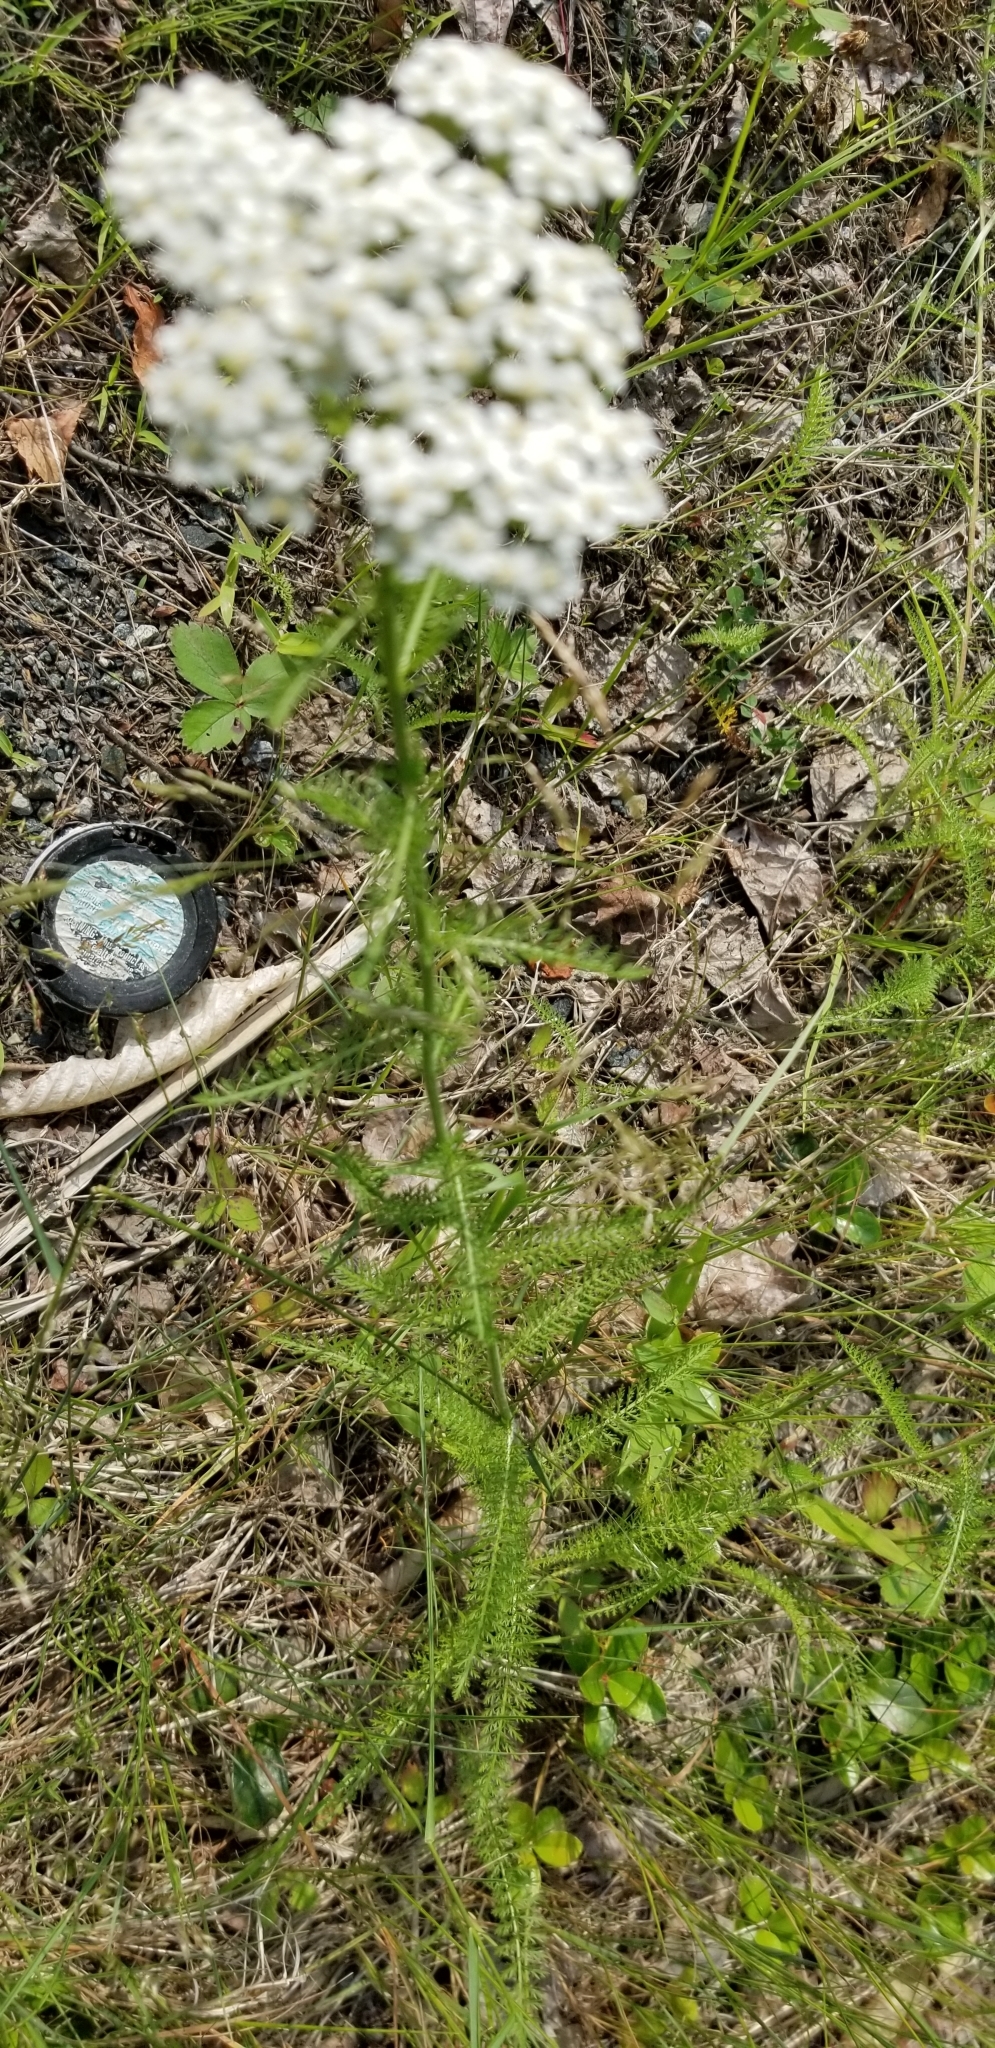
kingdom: Plantae
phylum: Tracheophyta
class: Magnoliopsida
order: Asterales
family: Asteraceae
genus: Achillea
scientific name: Achillea millefolium
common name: Yarrow
